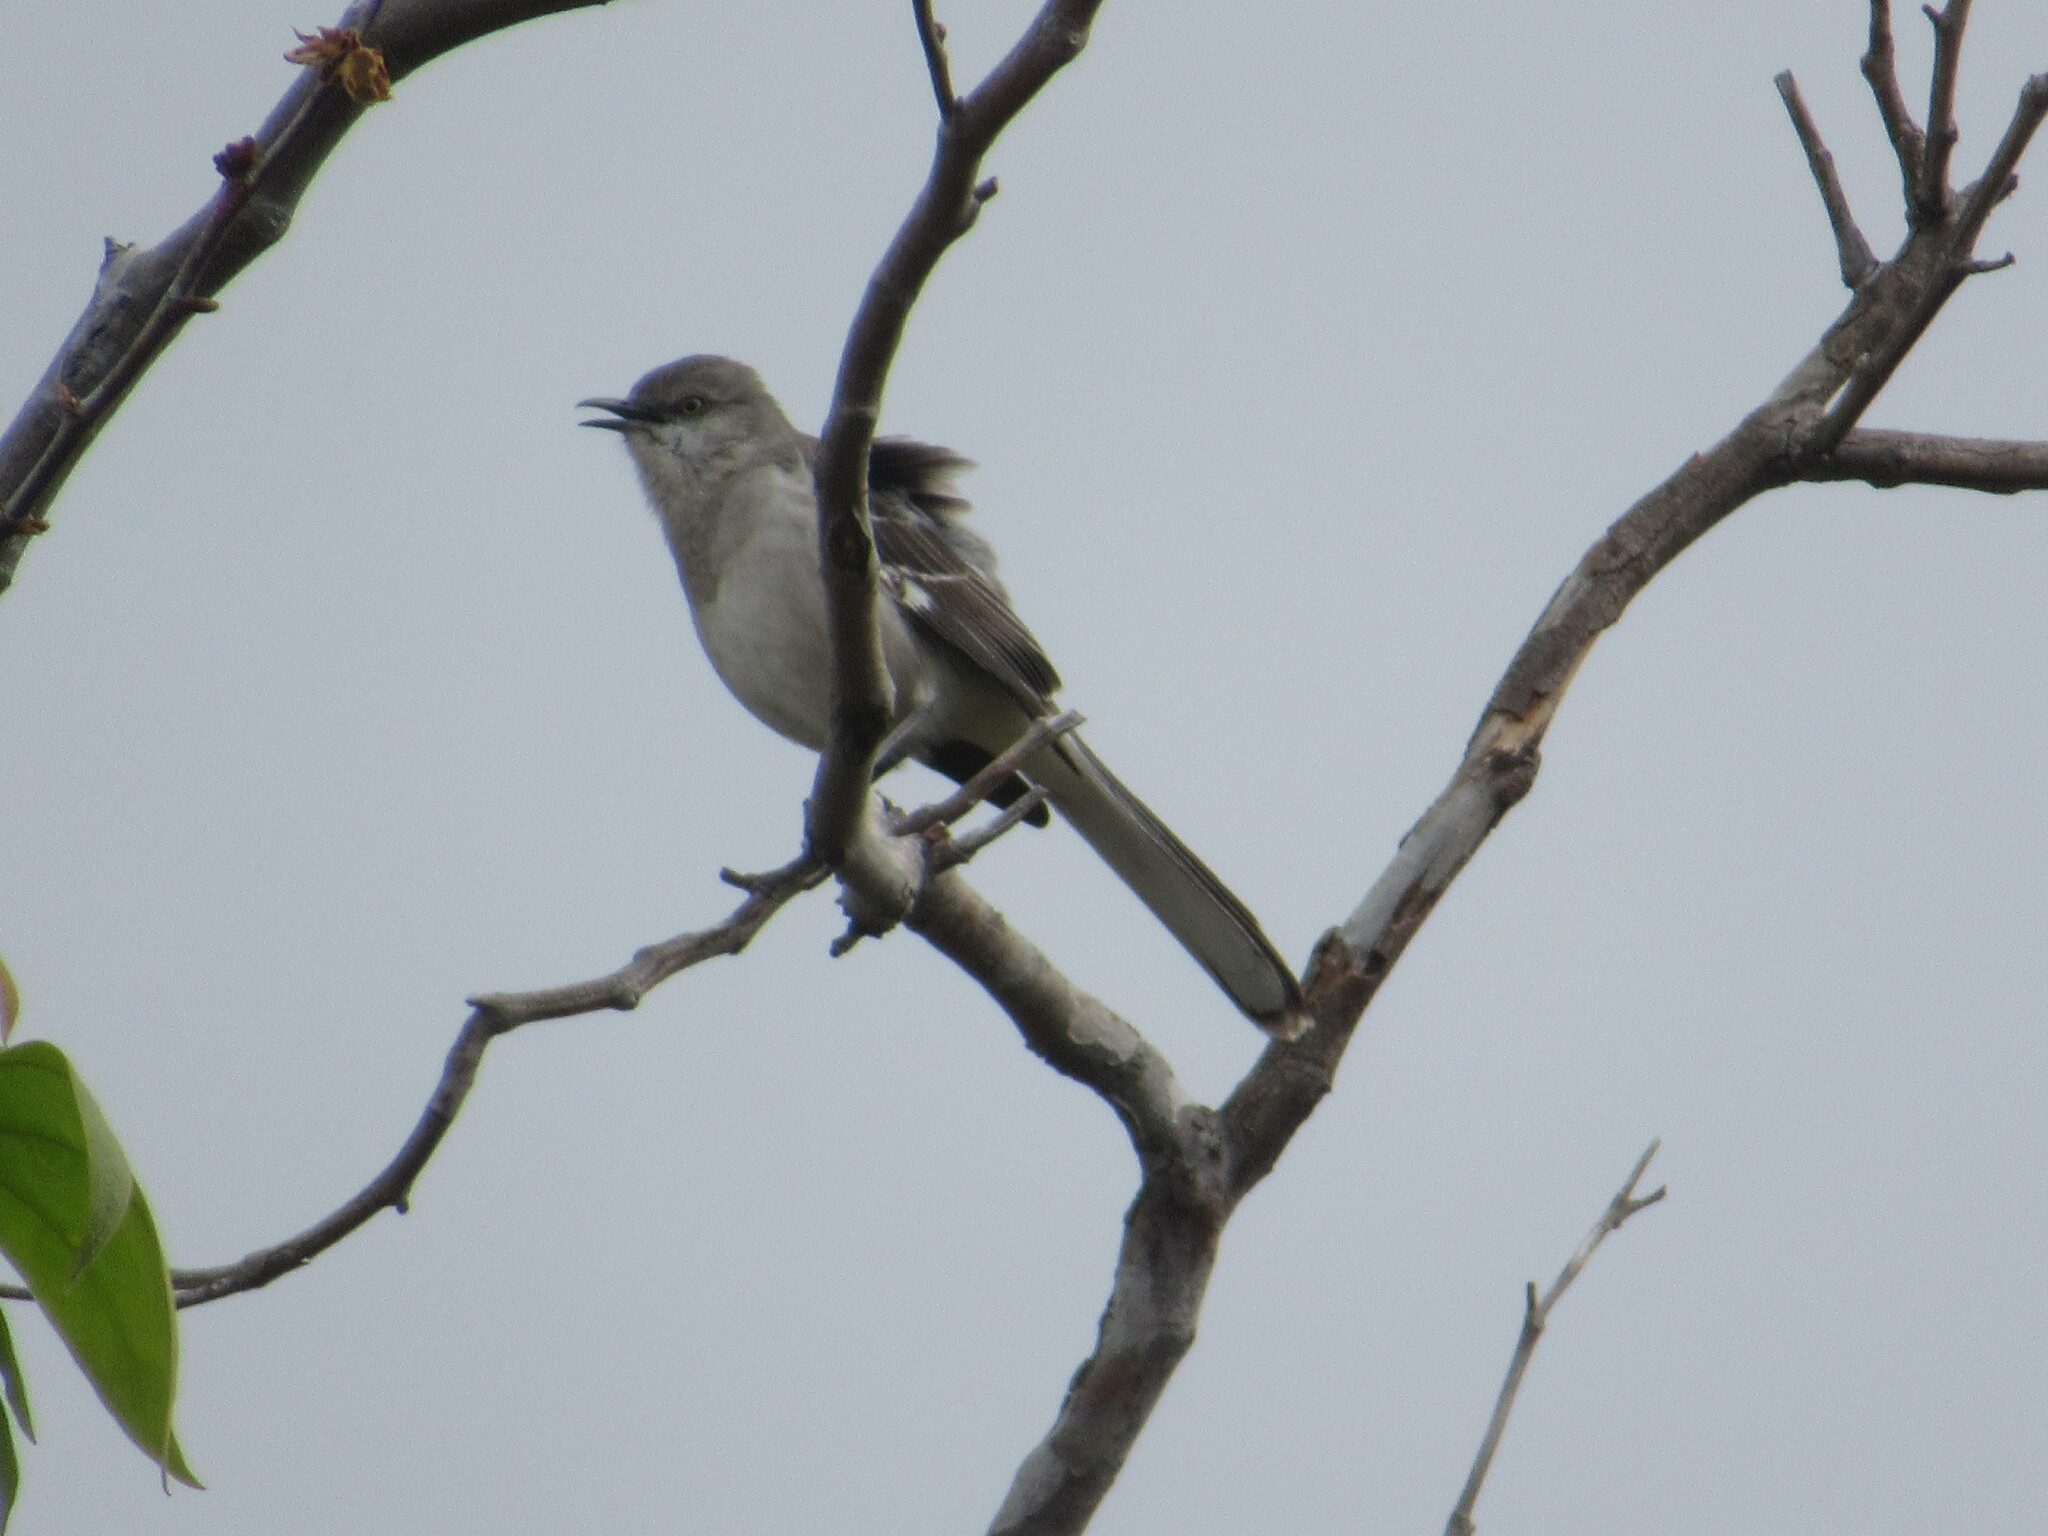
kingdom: Animalia
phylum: Chordata
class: Aves
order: Passeriformes
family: Mimidae
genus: Mimus
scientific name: Mimus polyglottos
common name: Northern mockingbird
